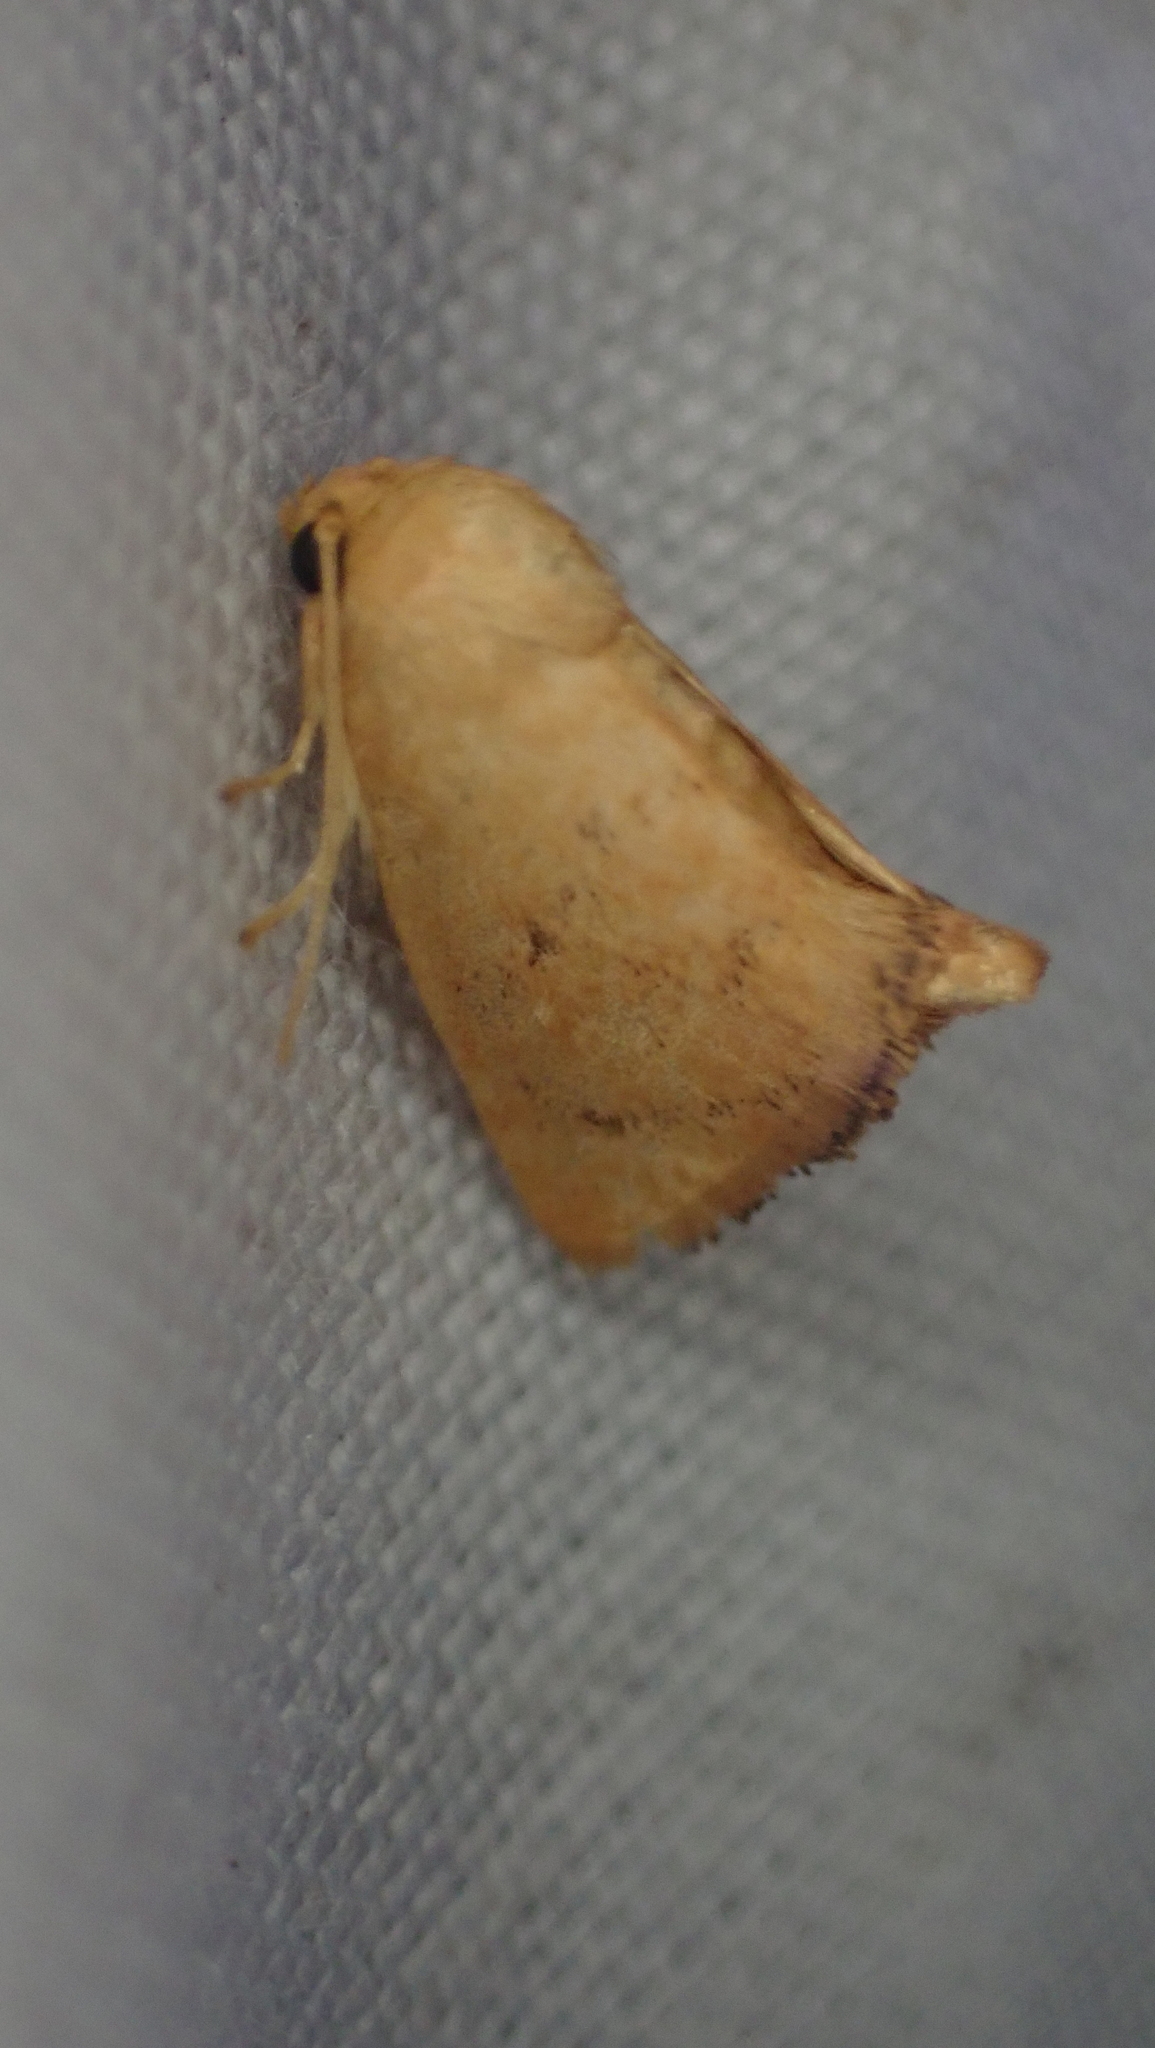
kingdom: Animalia
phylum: Arthropoda
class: Insecta
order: Lepidoptera
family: Limacodidae
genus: Tortricidia
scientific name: Tortricidia pallida
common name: Red-crossed button slug moth
